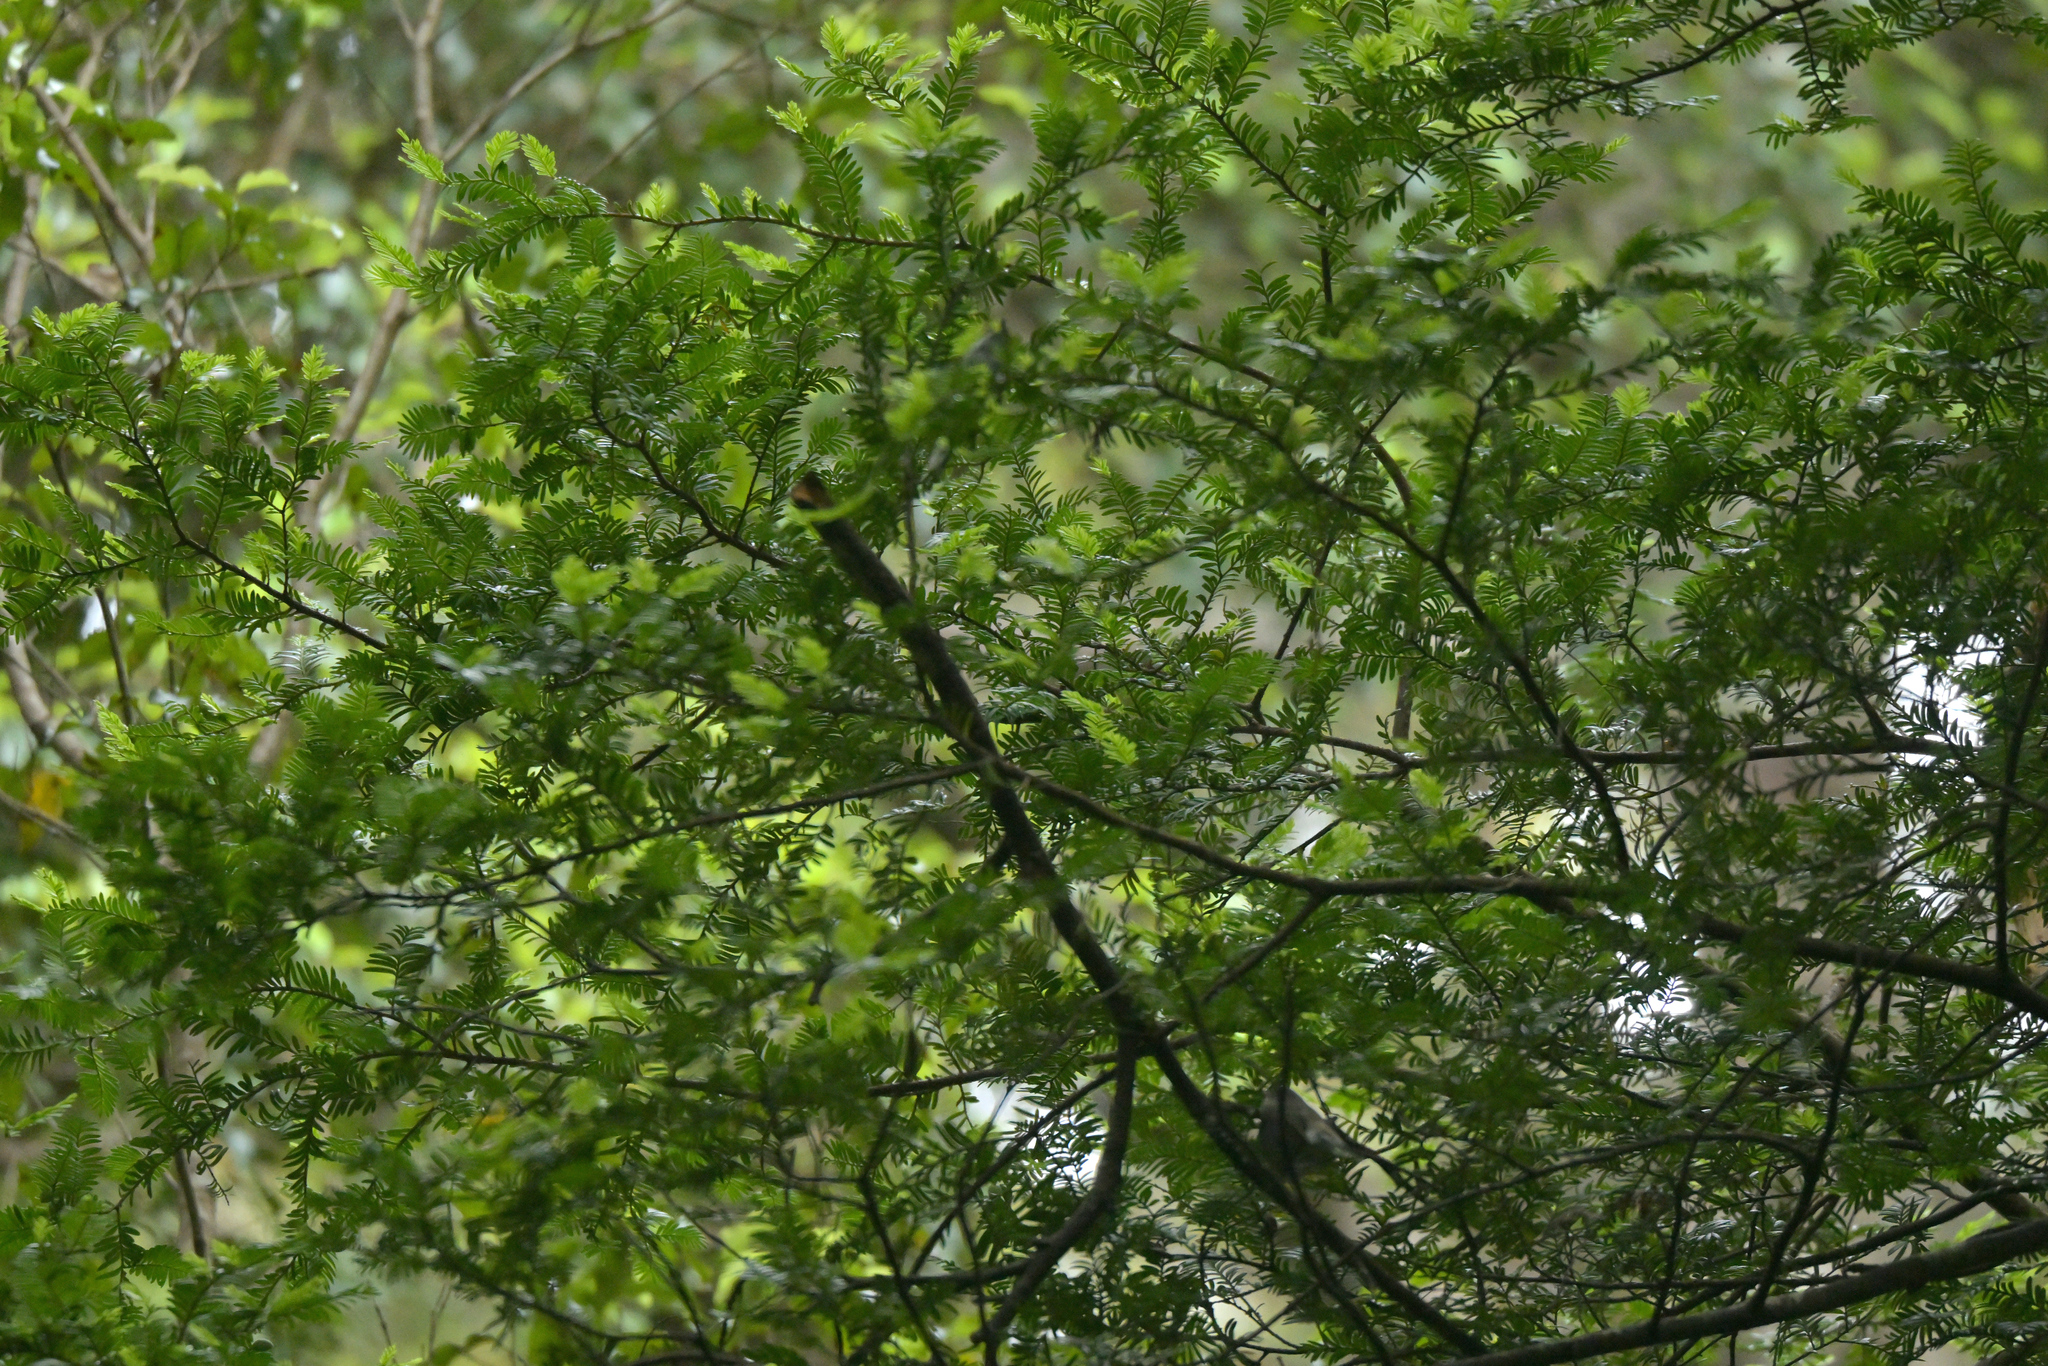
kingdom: Plantae
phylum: Tracheophyta
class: Pinopsida
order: Pinales
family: Podocarpaceae
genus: Prumnopitys
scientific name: Prumnopitys ferruginea
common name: Brown pine
